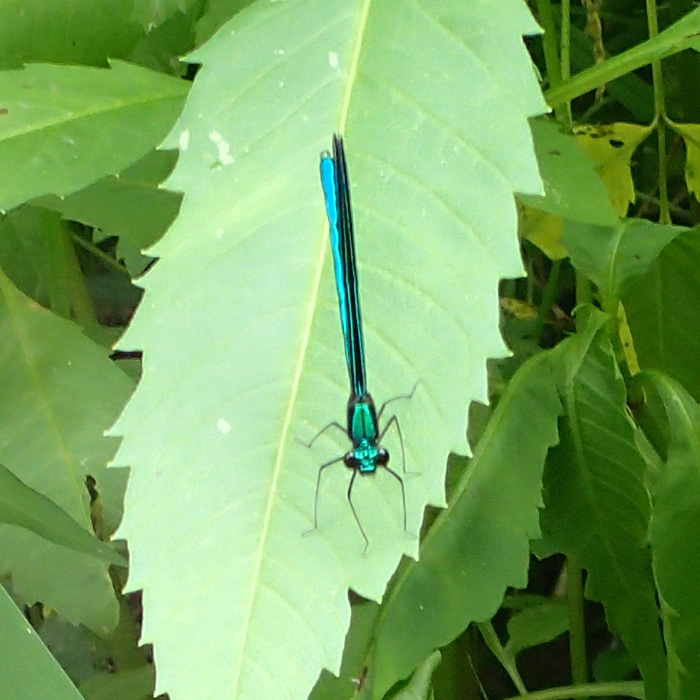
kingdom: Animalia
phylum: Arthropoda
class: Insecta
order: Odonata
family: Calopterygidae
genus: Calopteryx
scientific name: Calopteryx maculata
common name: Ebony jewelwing
